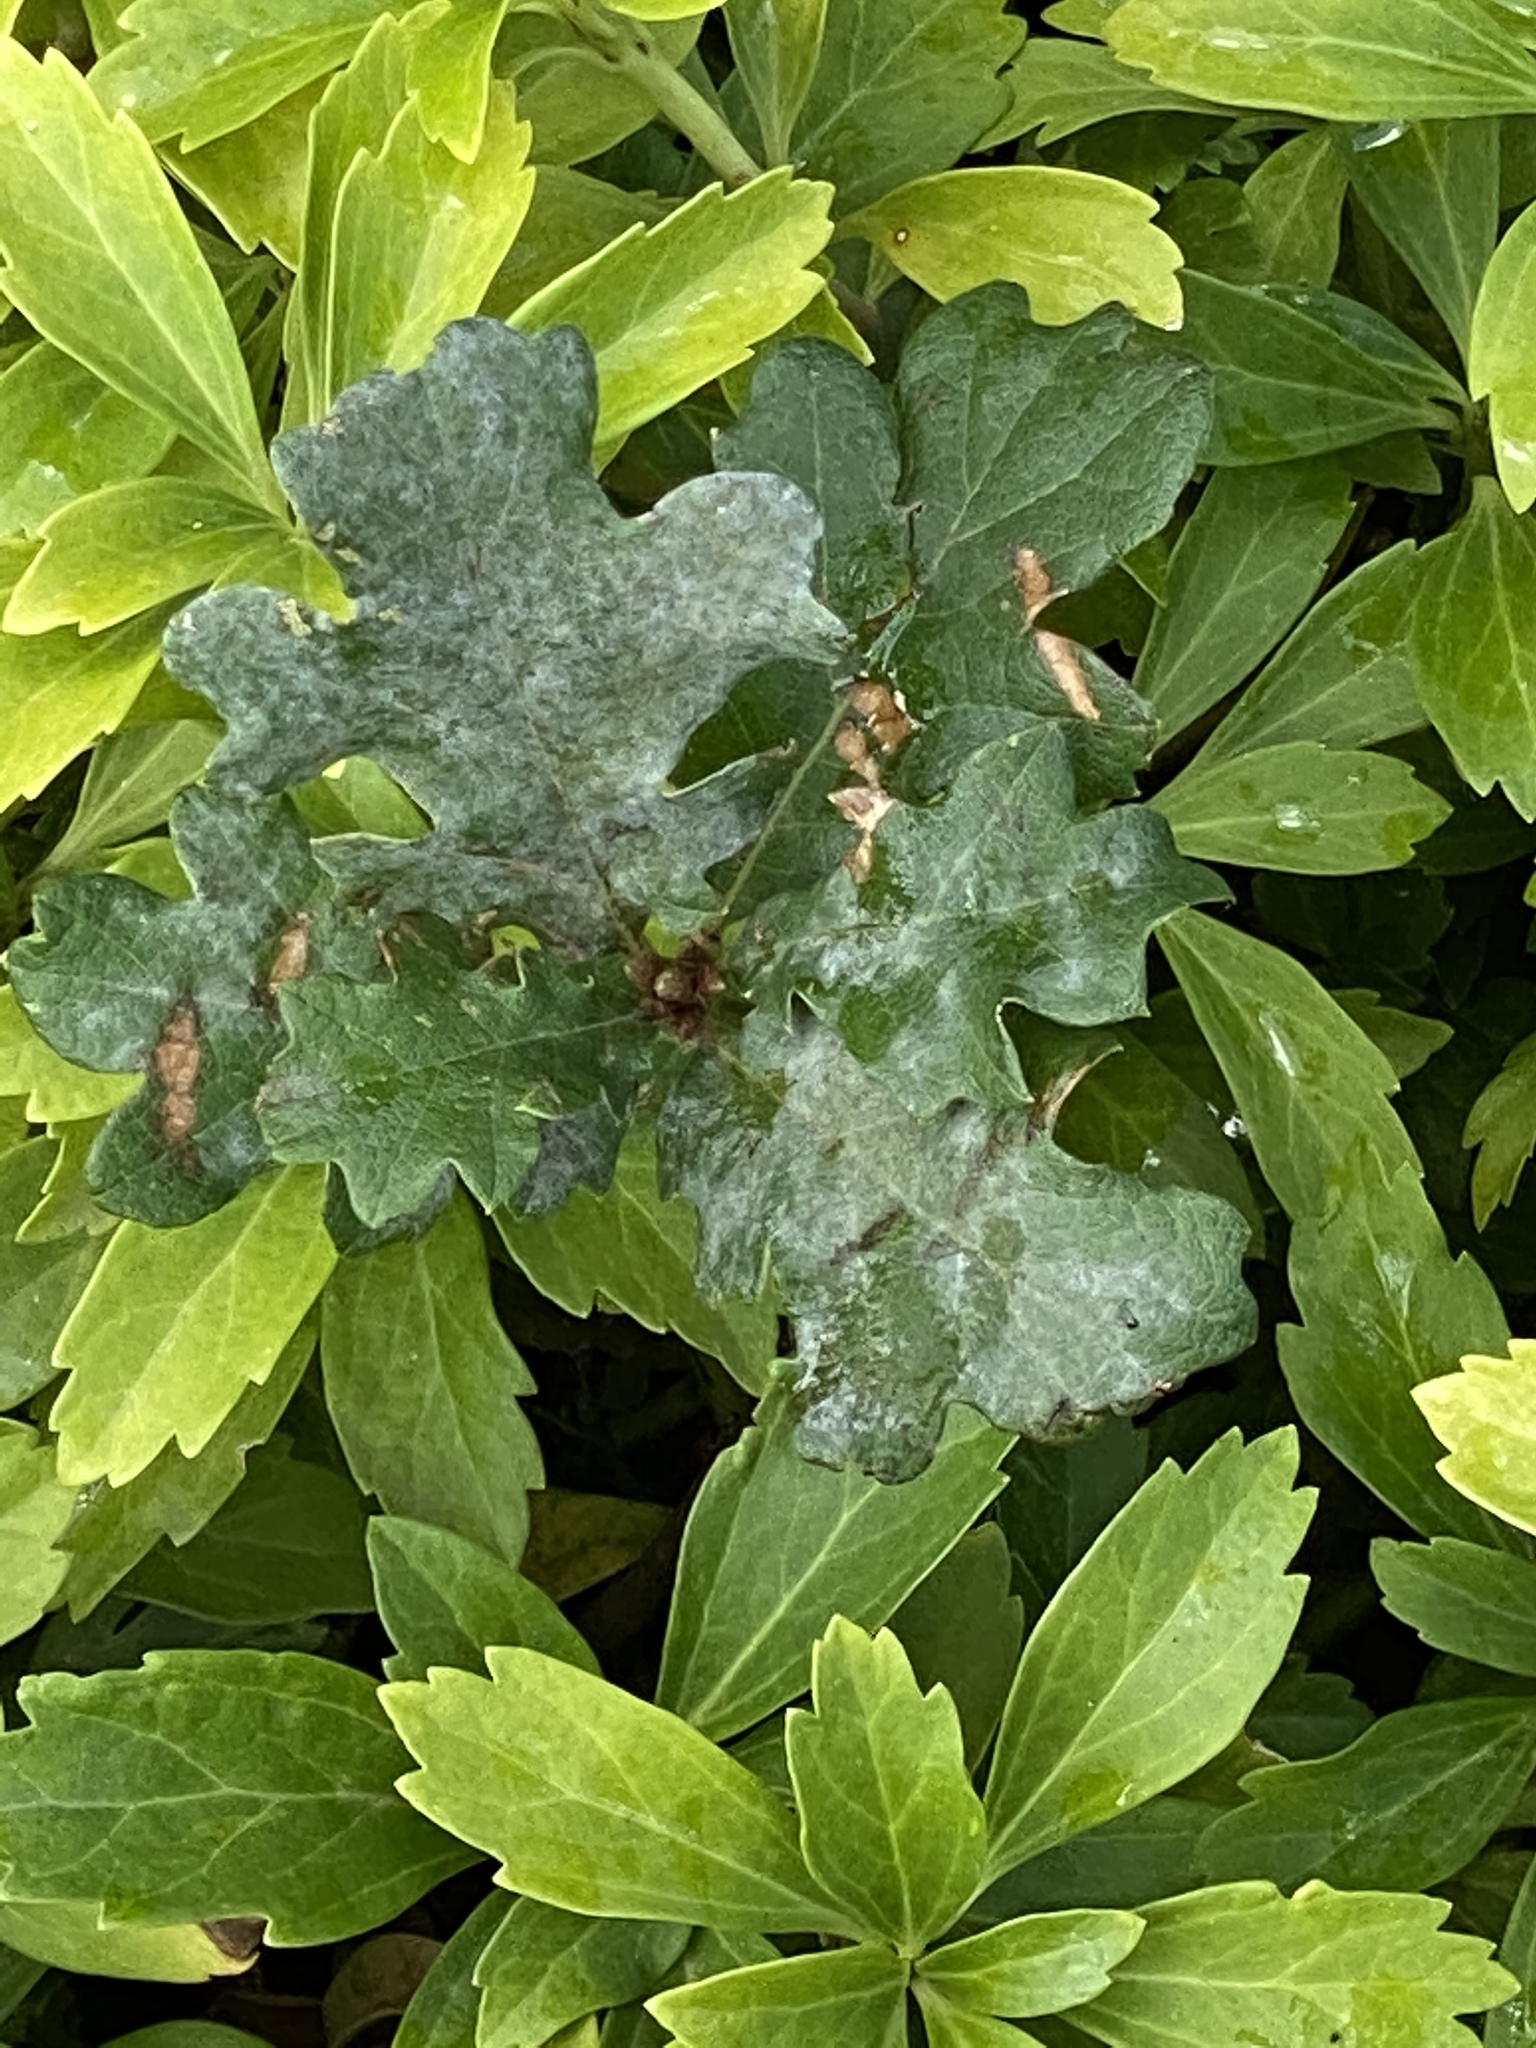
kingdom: Plantae
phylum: Tracheophyta
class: Magnoliopsida
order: Fagales
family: Fagaceae
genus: Quercus
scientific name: Quercus garryana
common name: Garry oak
